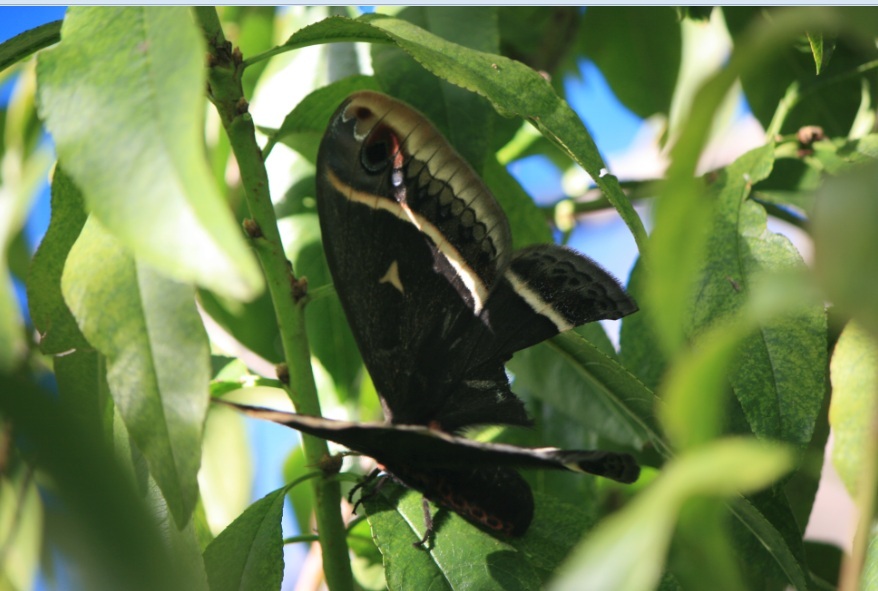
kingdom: Animalia
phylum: Arthropoda
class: Insecta
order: Lepidoptera
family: Saturniidae
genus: Eupackardia
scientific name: Eupackardia calleta
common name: Calleta silkmoth
